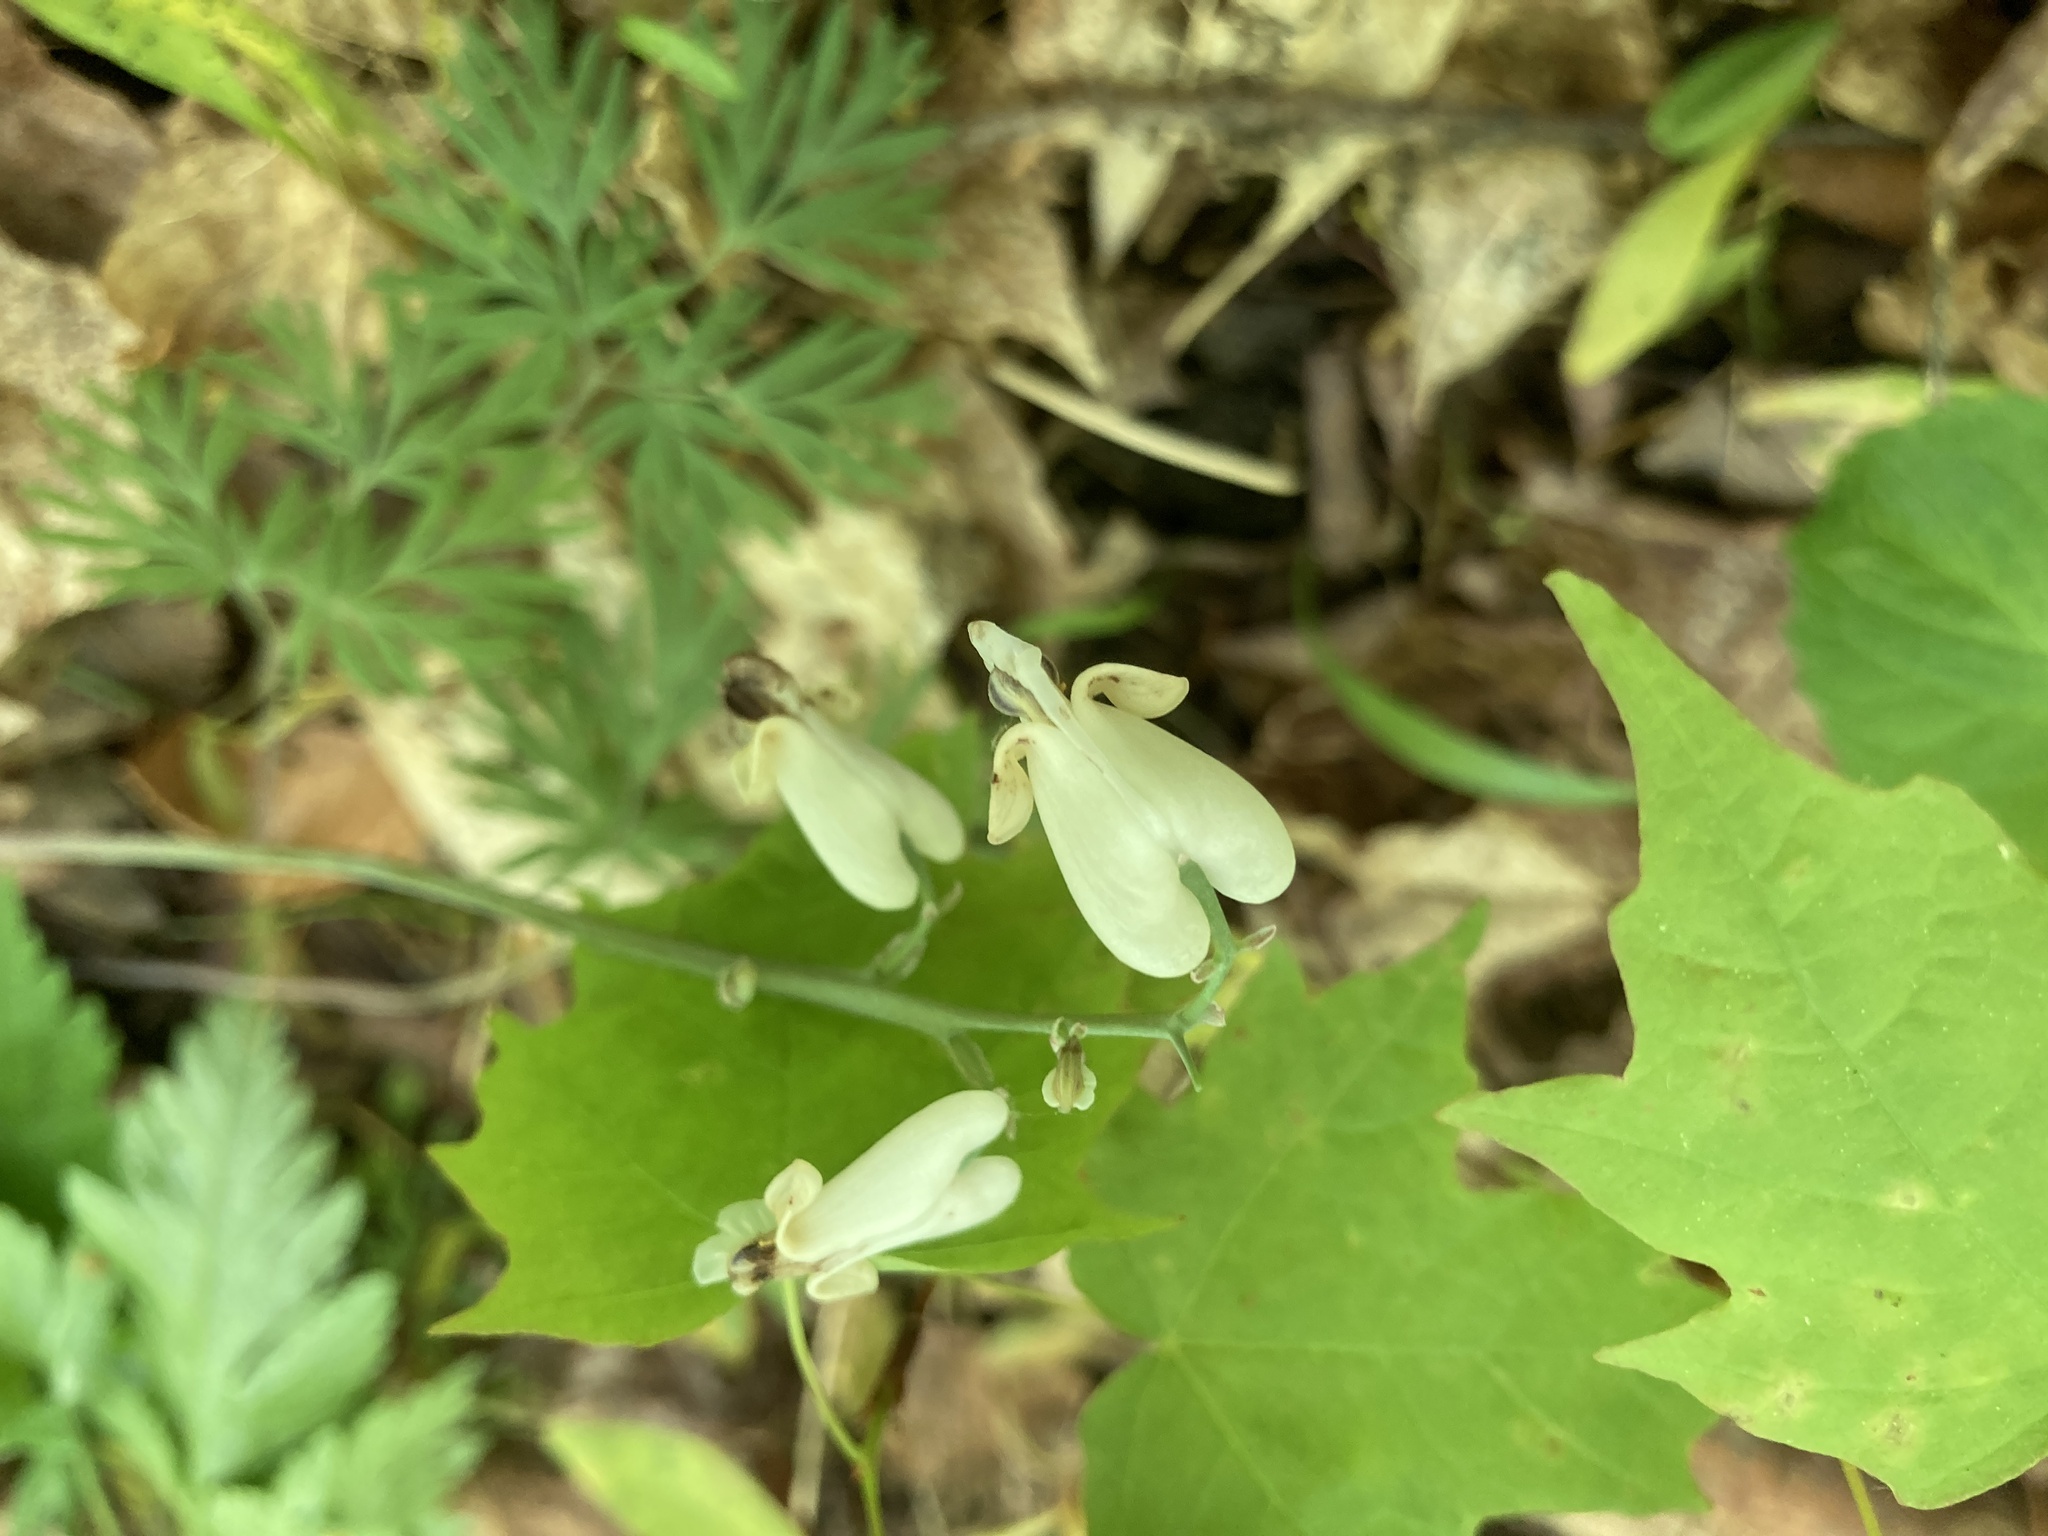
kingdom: Plantae
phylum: Tracheophyta
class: Magnoliopsida
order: Ranunculales
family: Papaveraceae
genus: Dicentra
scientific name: Dicentra canadensis
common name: Squirrel-corn
